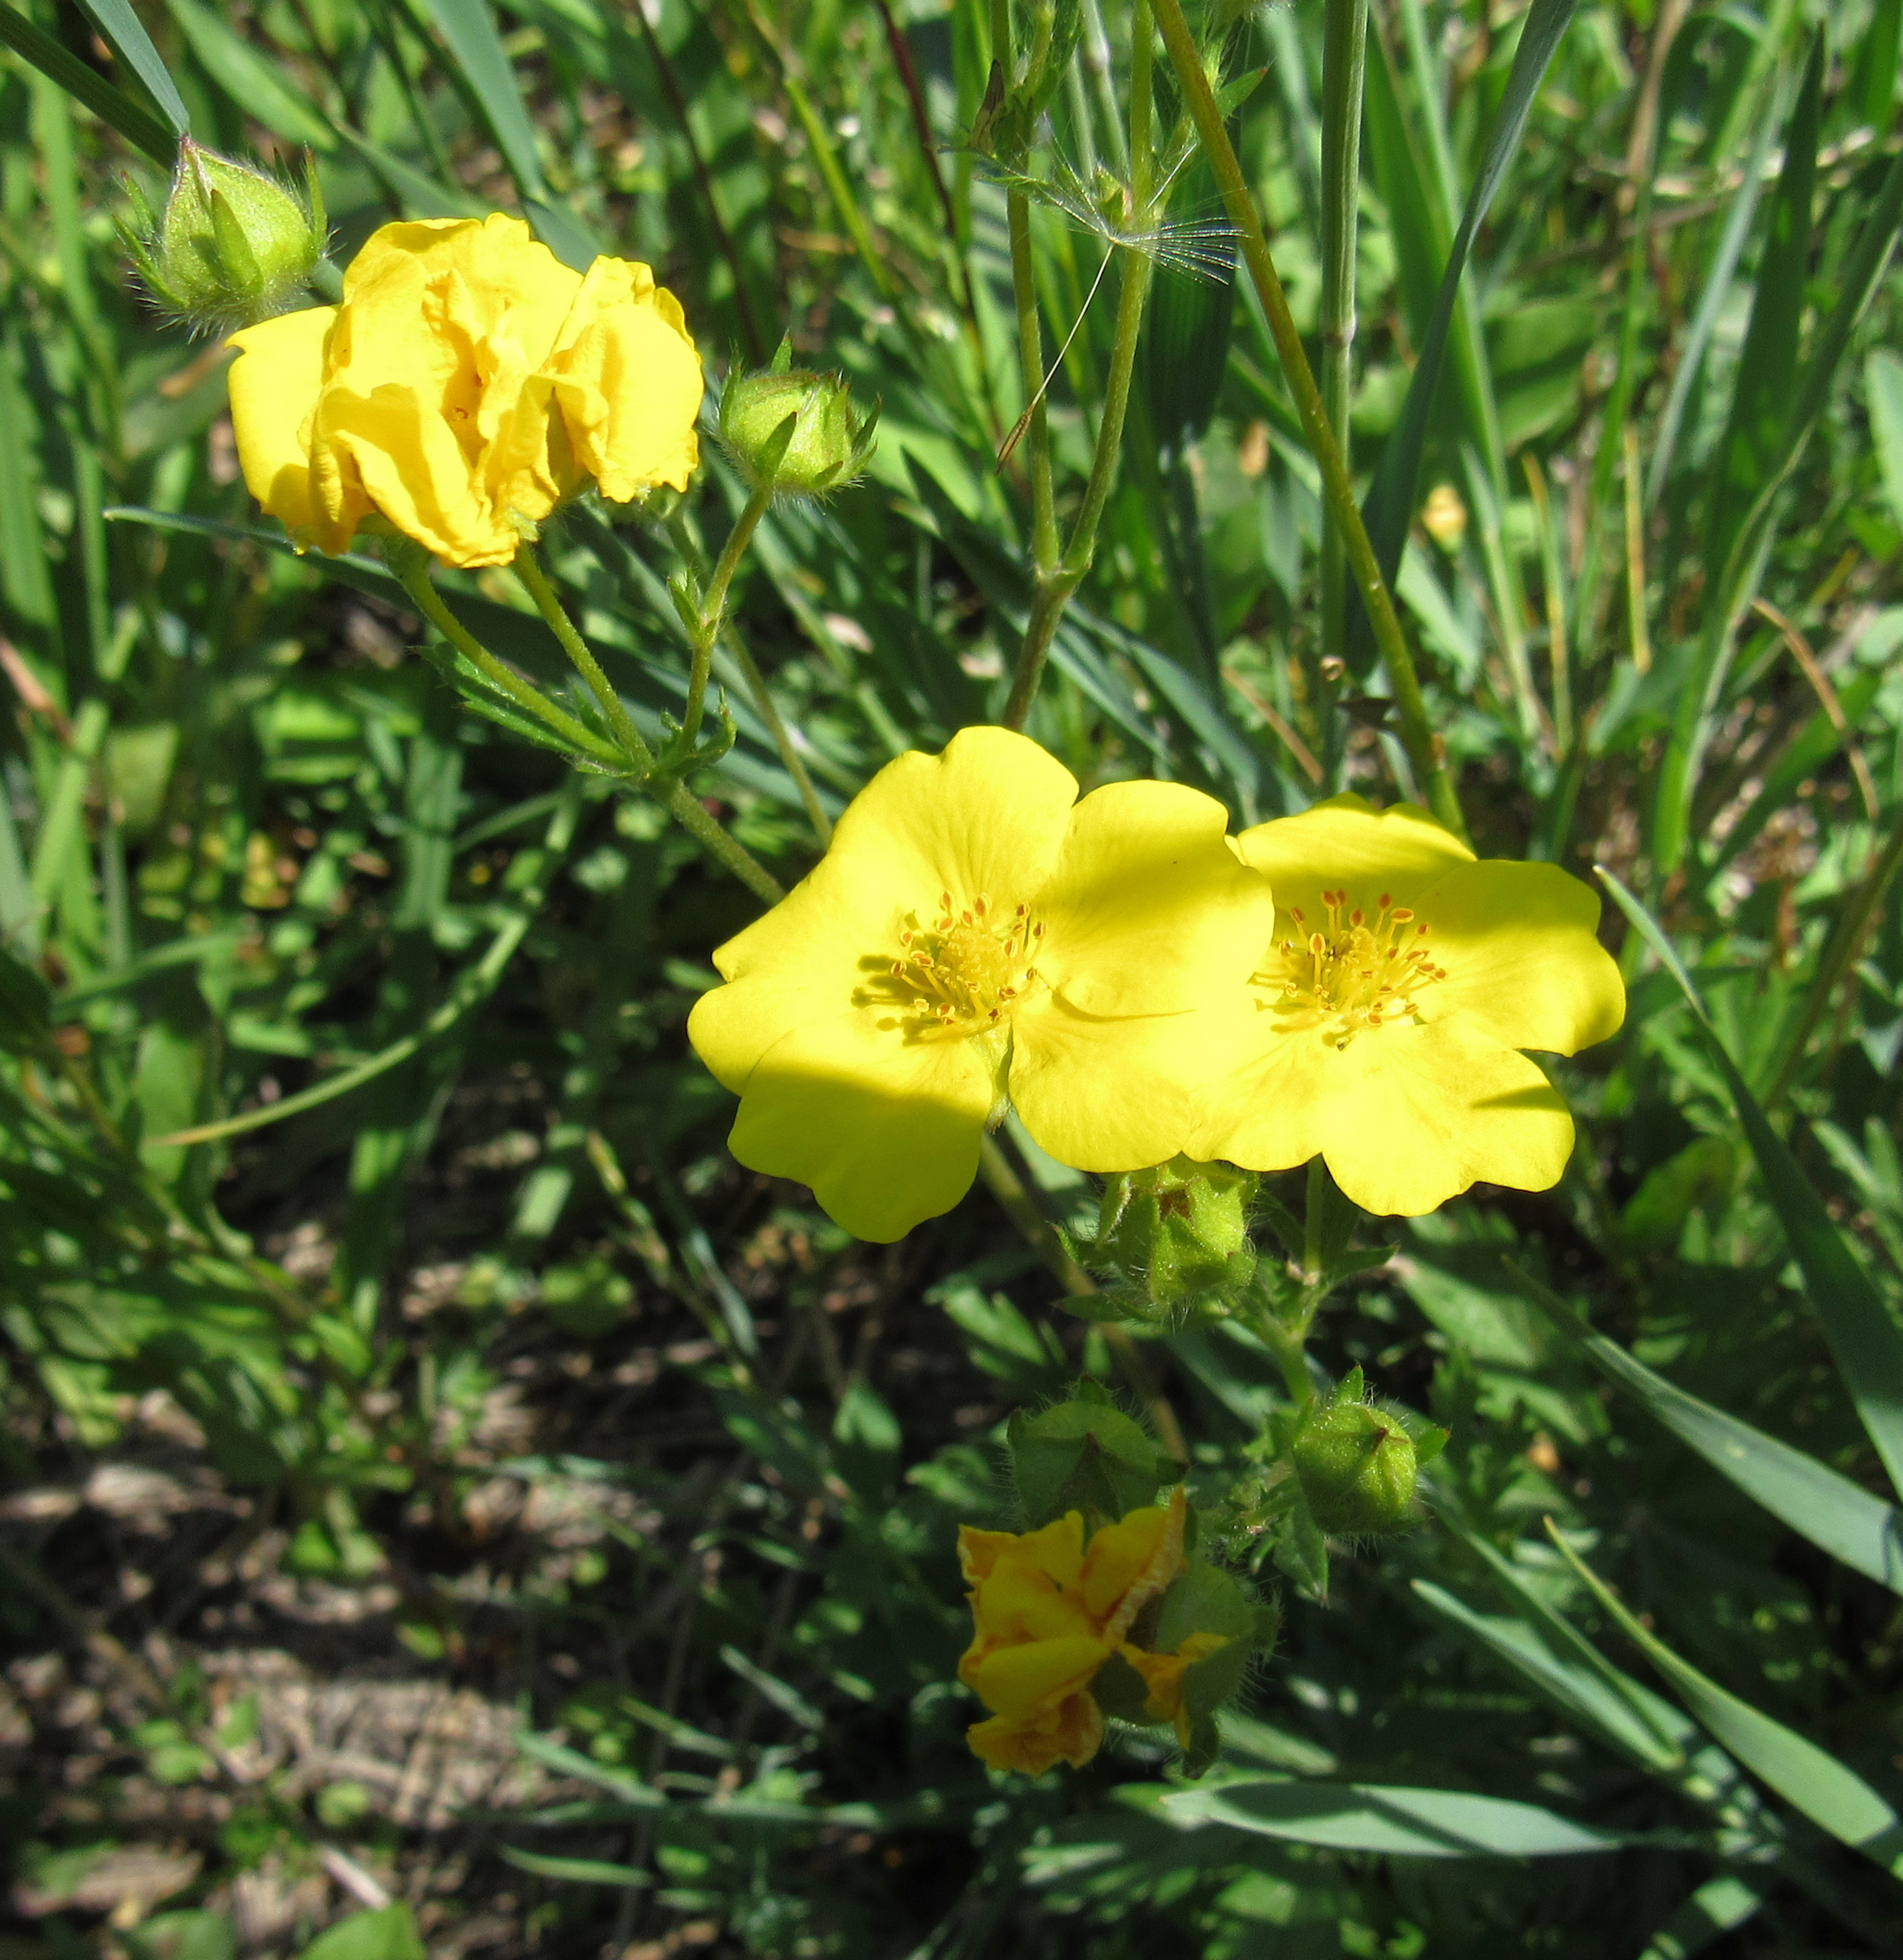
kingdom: Plantae
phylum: Tracheophyta
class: Magnoliopsida
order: Rosales
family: Rosaceae
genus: Potentilla
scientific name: Potentilla gracilis
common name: Graceful cinquefoil
